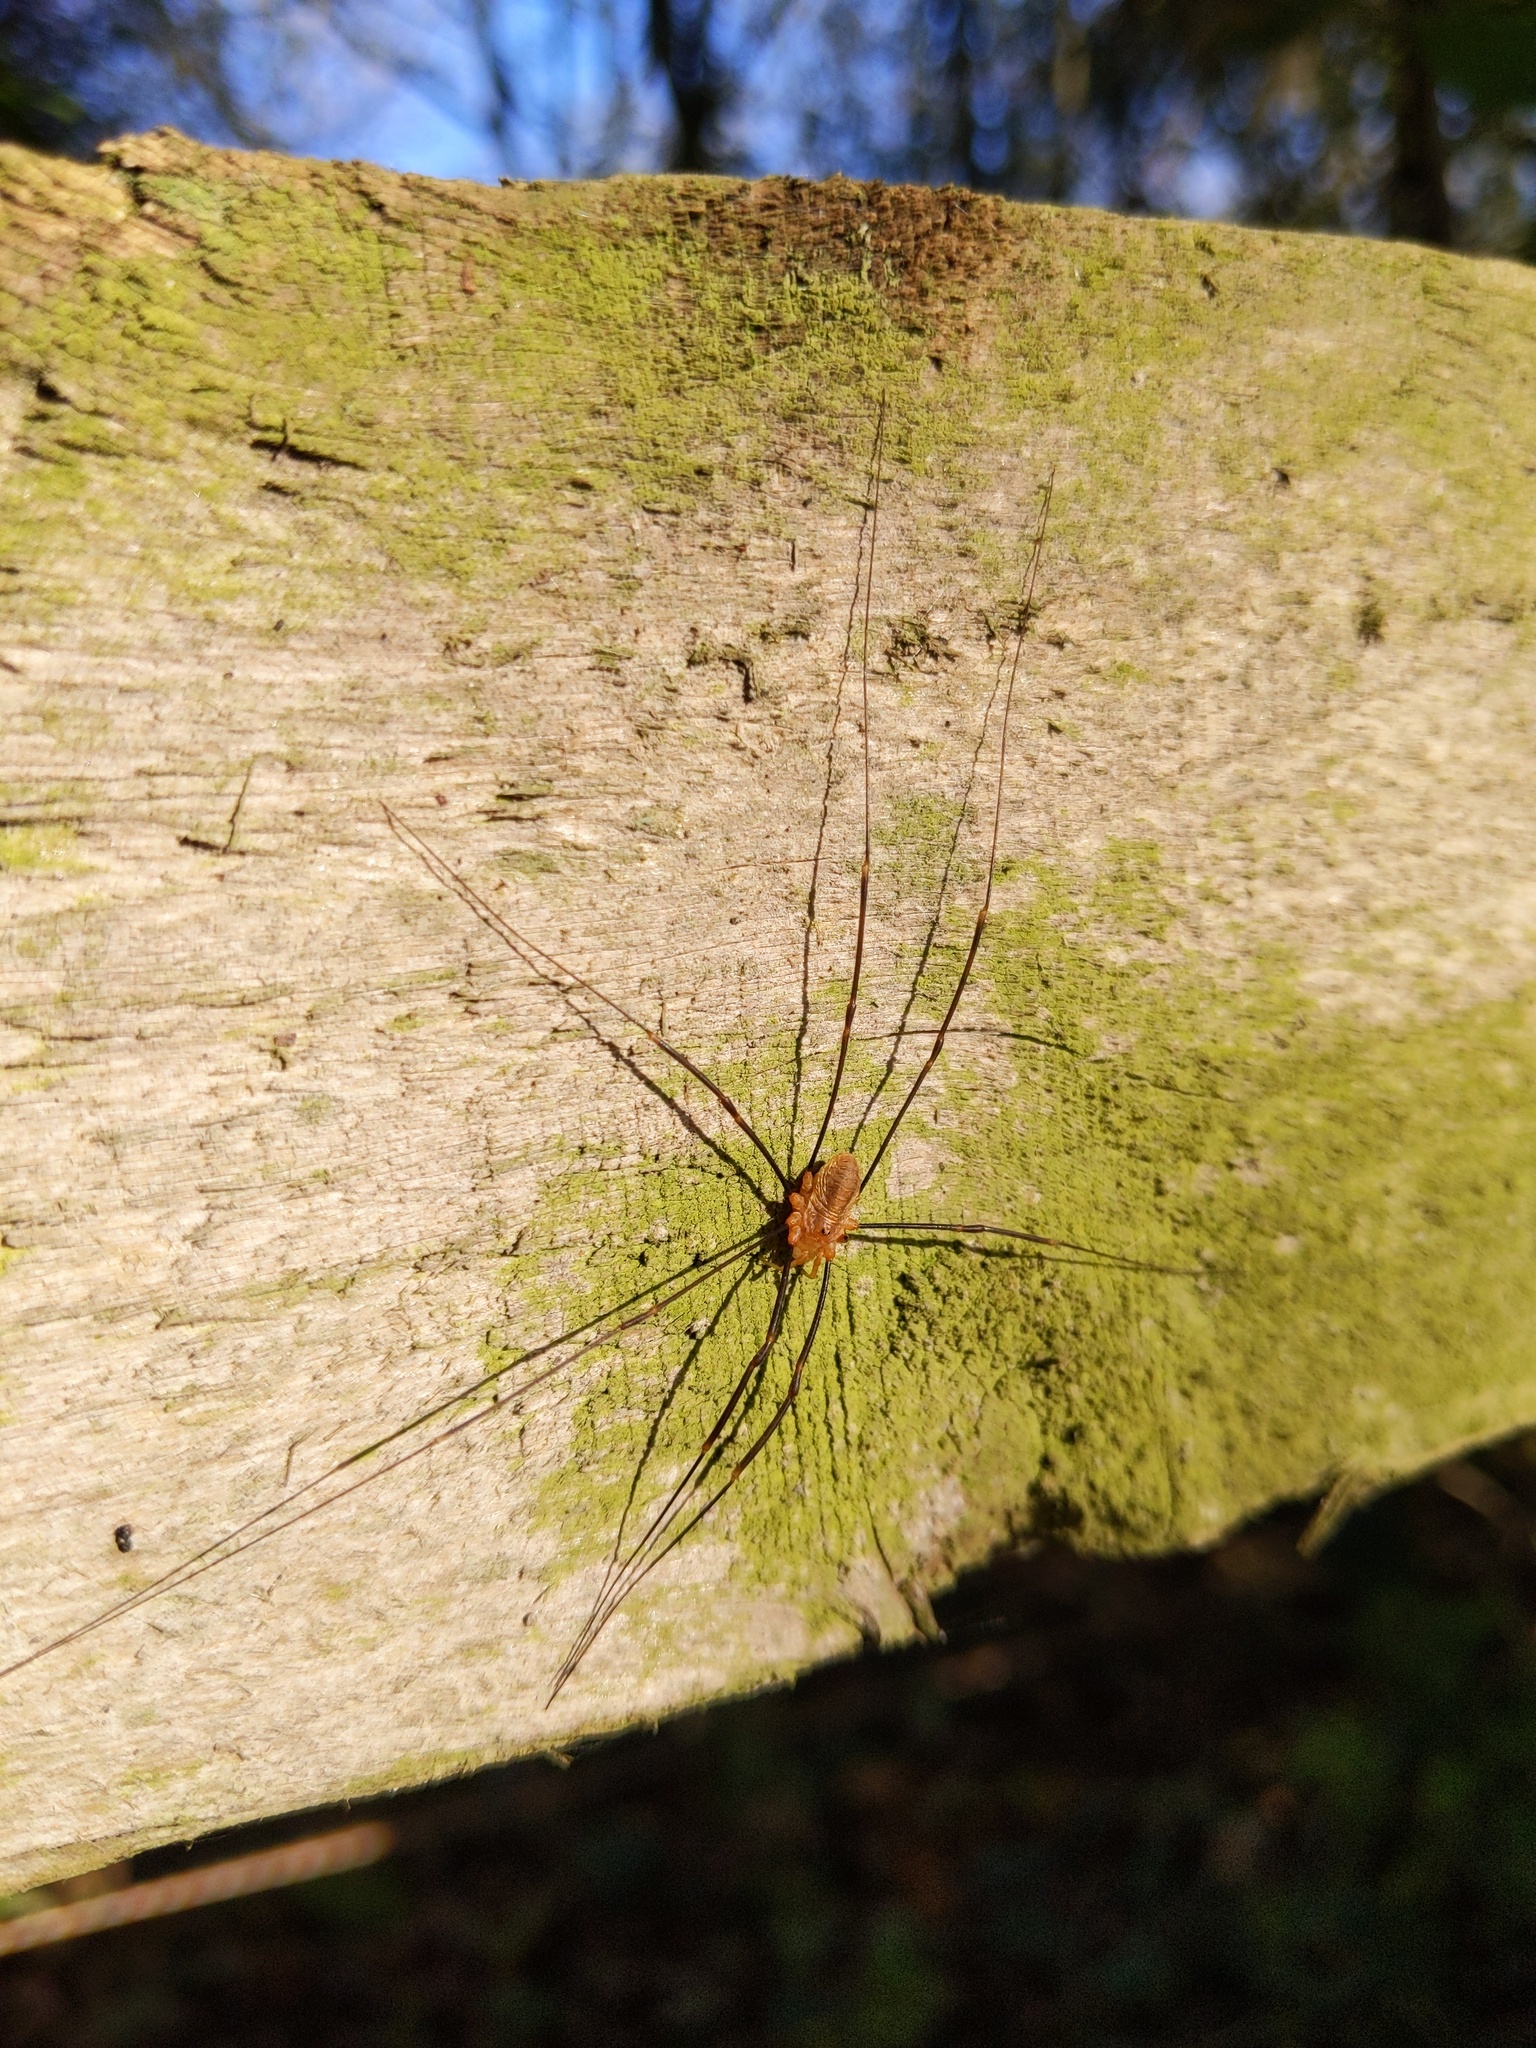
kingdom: Animalia
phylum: Arthropoda
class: Arachnida
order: Opiliones
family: Phalangiidae
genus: Opilio
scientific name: Opilio canestrinii
